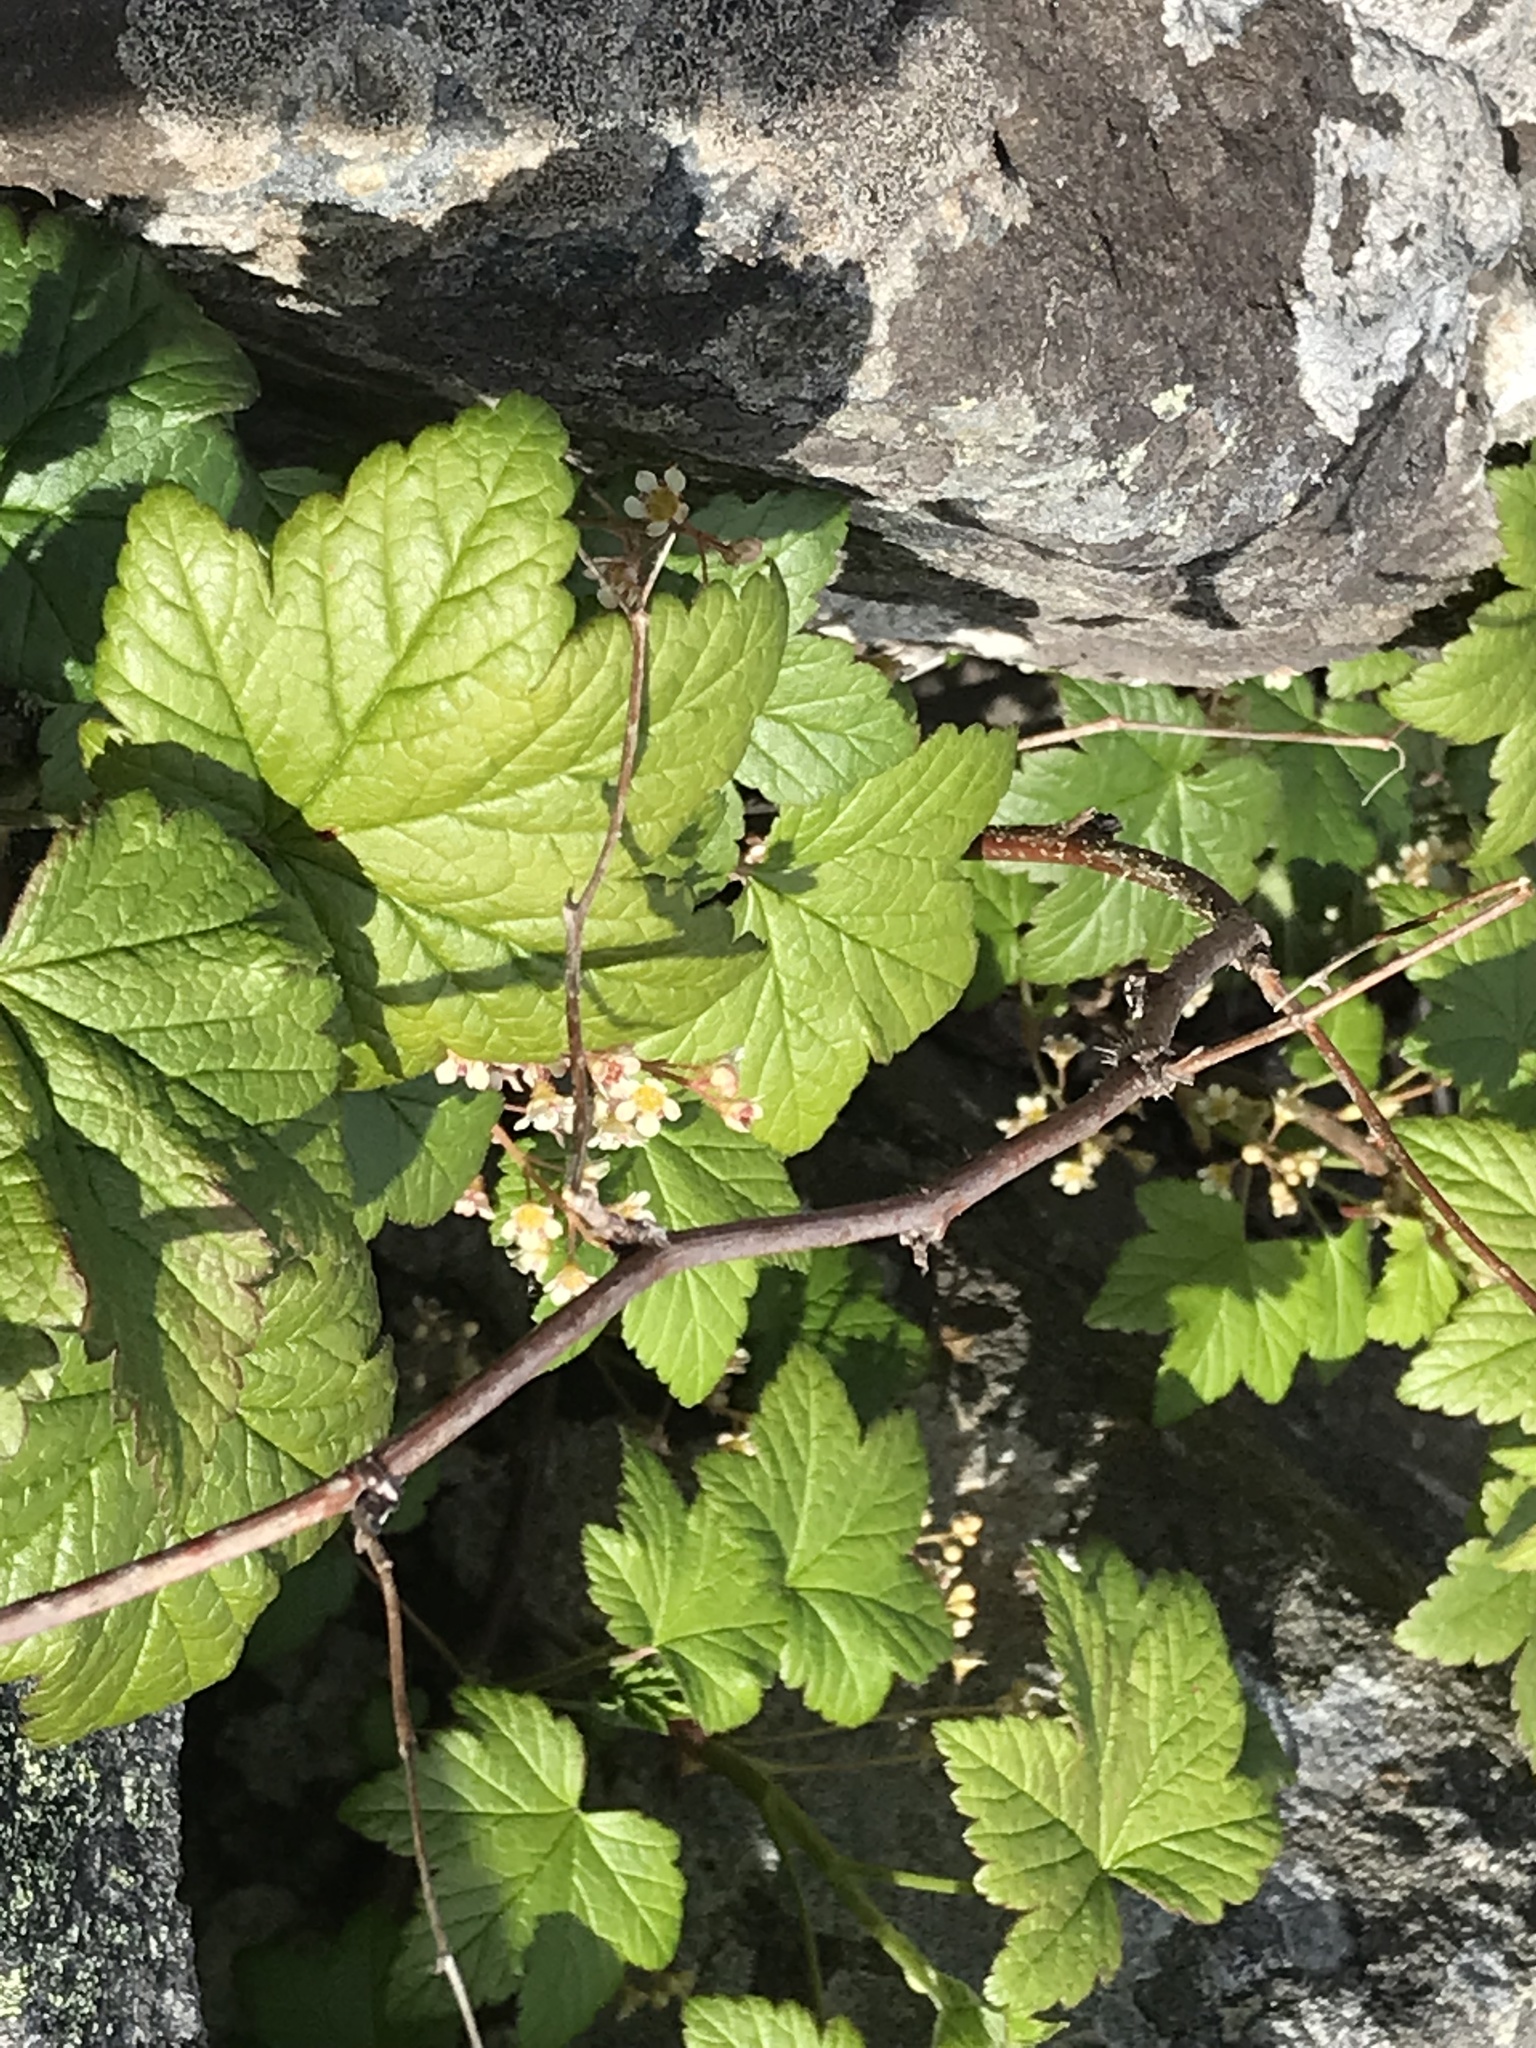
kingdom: Plantae
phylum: Tracheophyta
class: Magnoliopsida
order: Saxifragales
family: Grossulariaceae
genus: Ribes
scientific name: Ribes glandulosum
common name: Skunk currant
